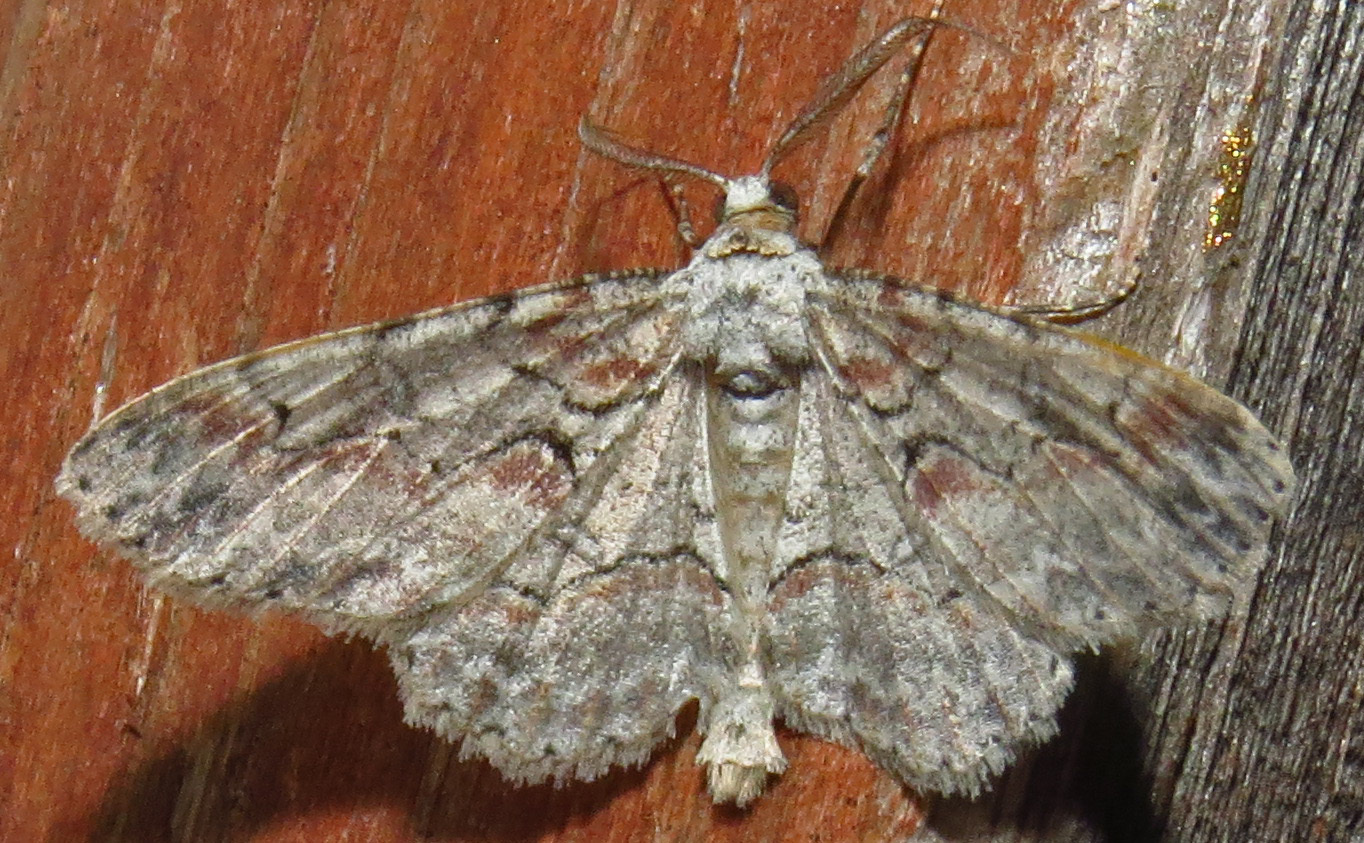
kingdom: Animalia
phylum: Arthropoda
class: Insecta
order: Lepidoptera
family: Geometridae
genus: Iridopsis
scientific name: Iridopsis defectaria
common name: Brown-shaded gray
